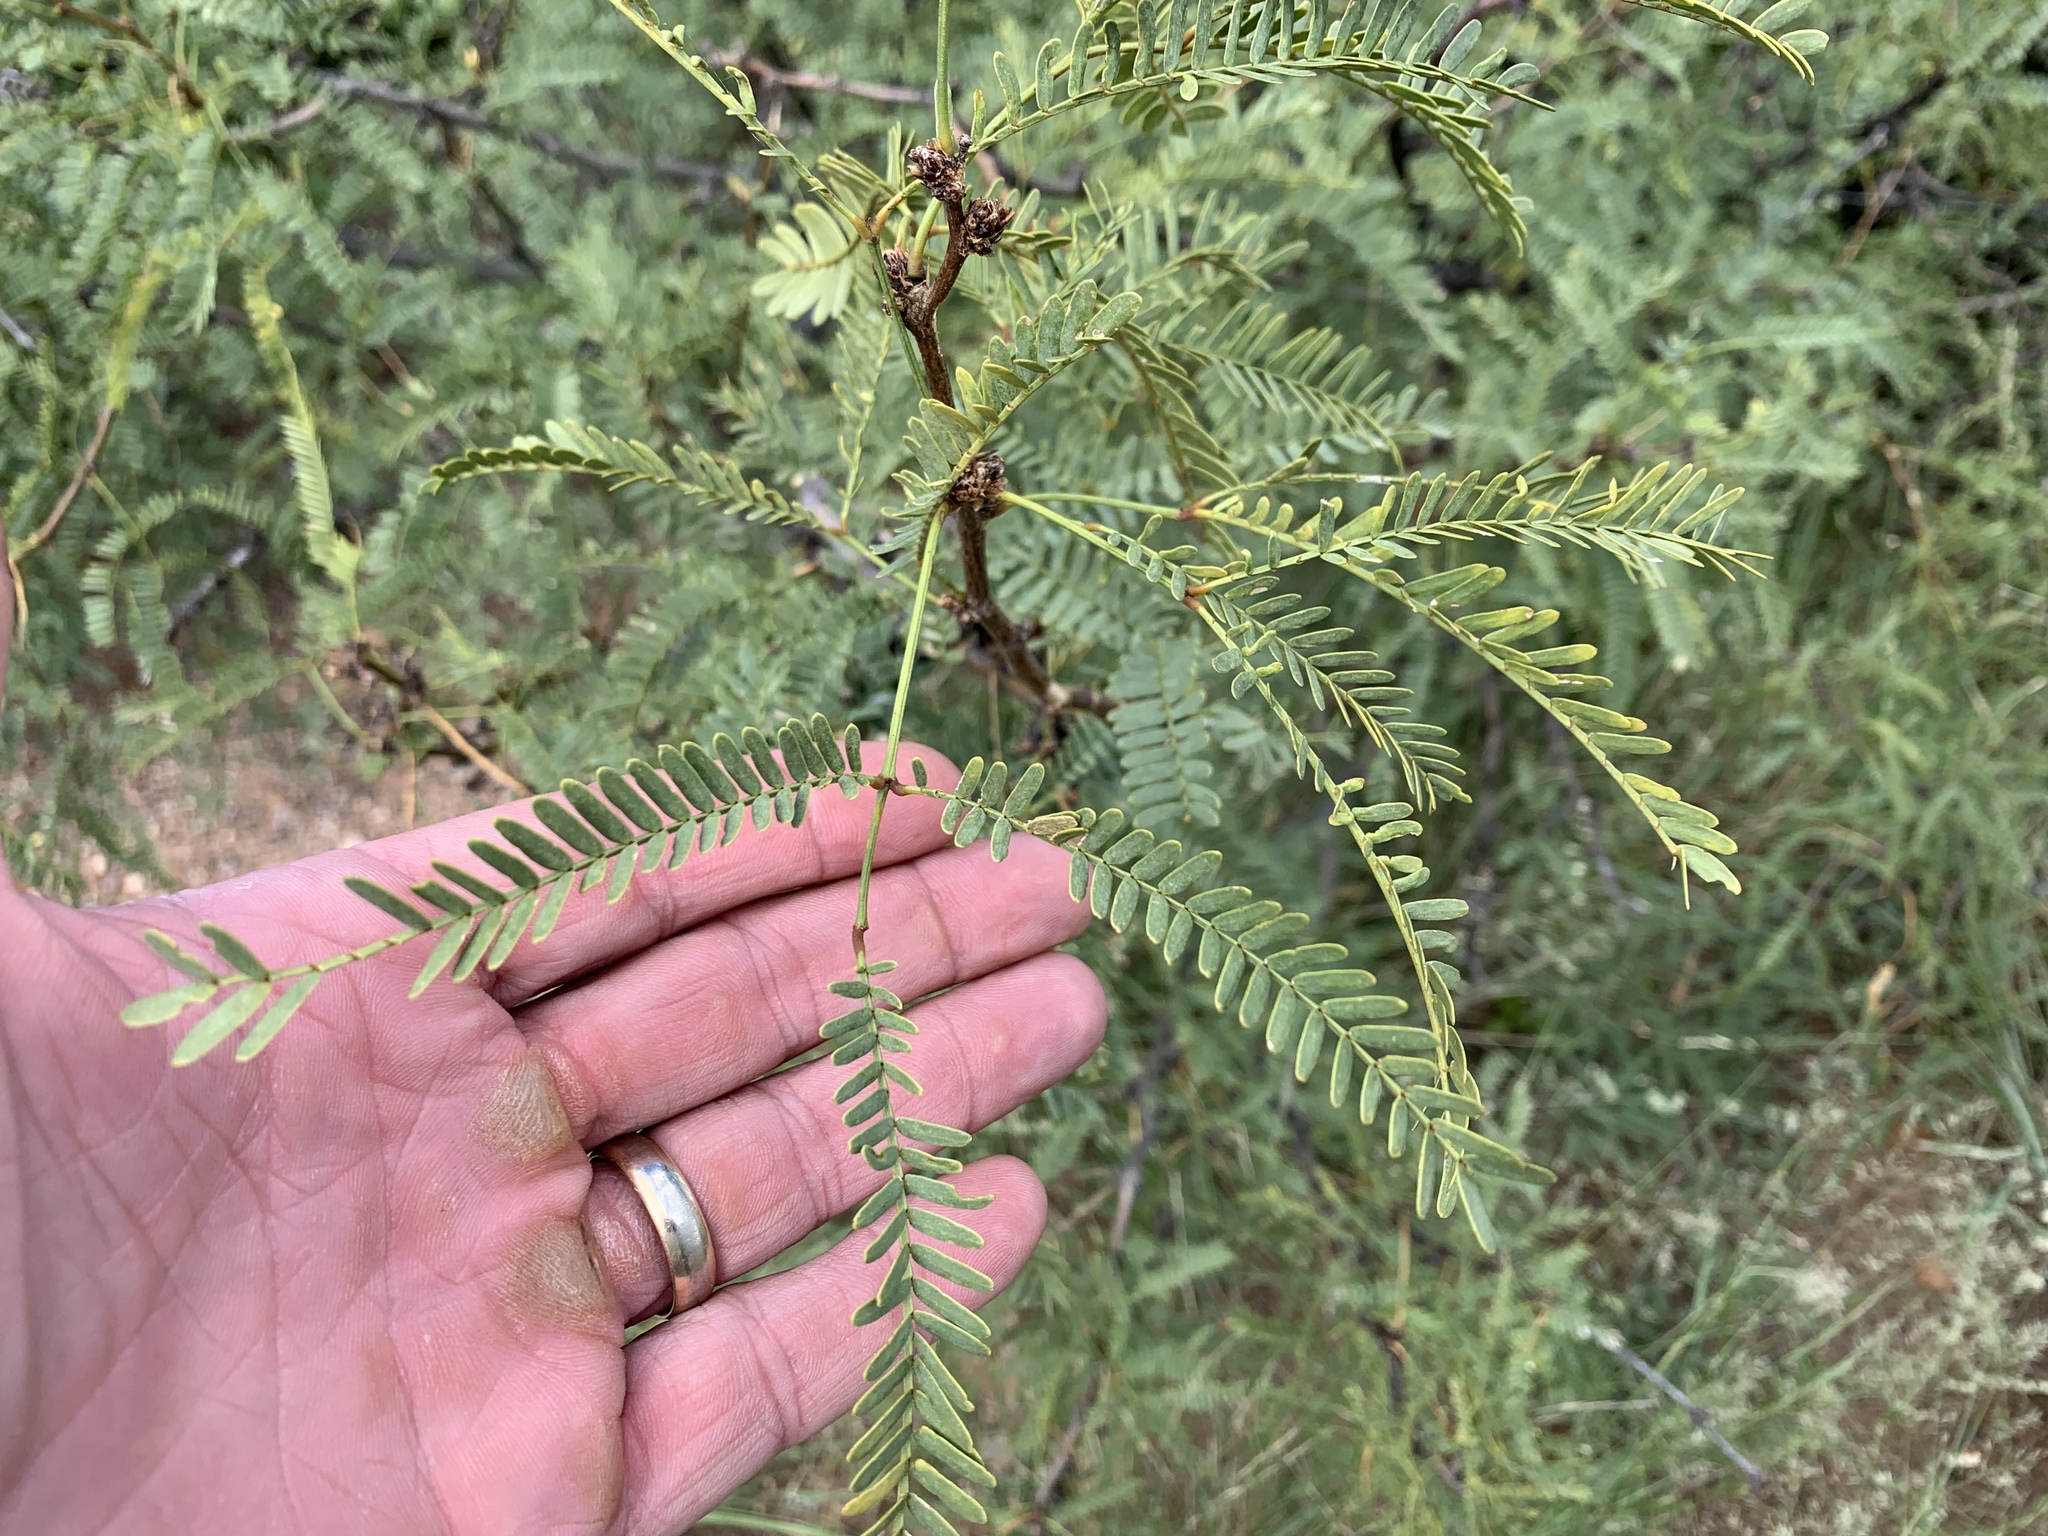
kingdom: Plantae
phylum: Tracheophyta
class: Magnoliopsida
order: Fabales
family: Fabaceae
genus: Prosopis
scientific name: Prosopis velutina
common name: Velvet mesquite
